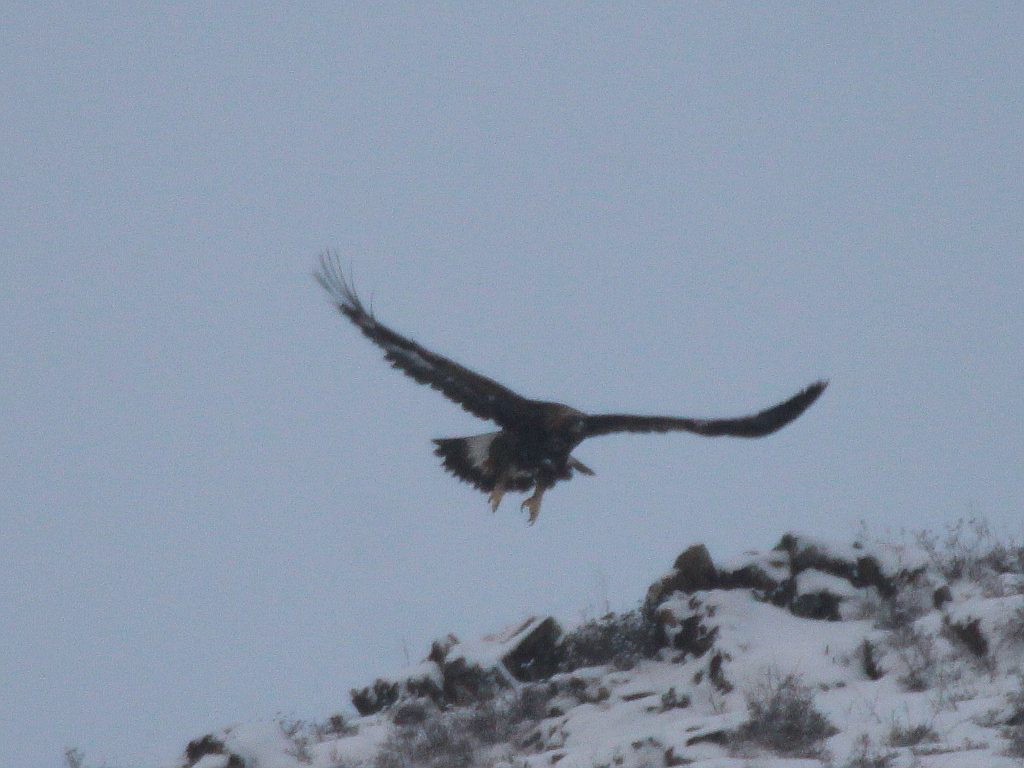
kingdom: Animalia
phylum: Chordata
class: Aves
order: Accipitriformes
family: Accipitridae
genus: Aquila
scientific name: Aquila chrysaetos
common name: Golden eagle
